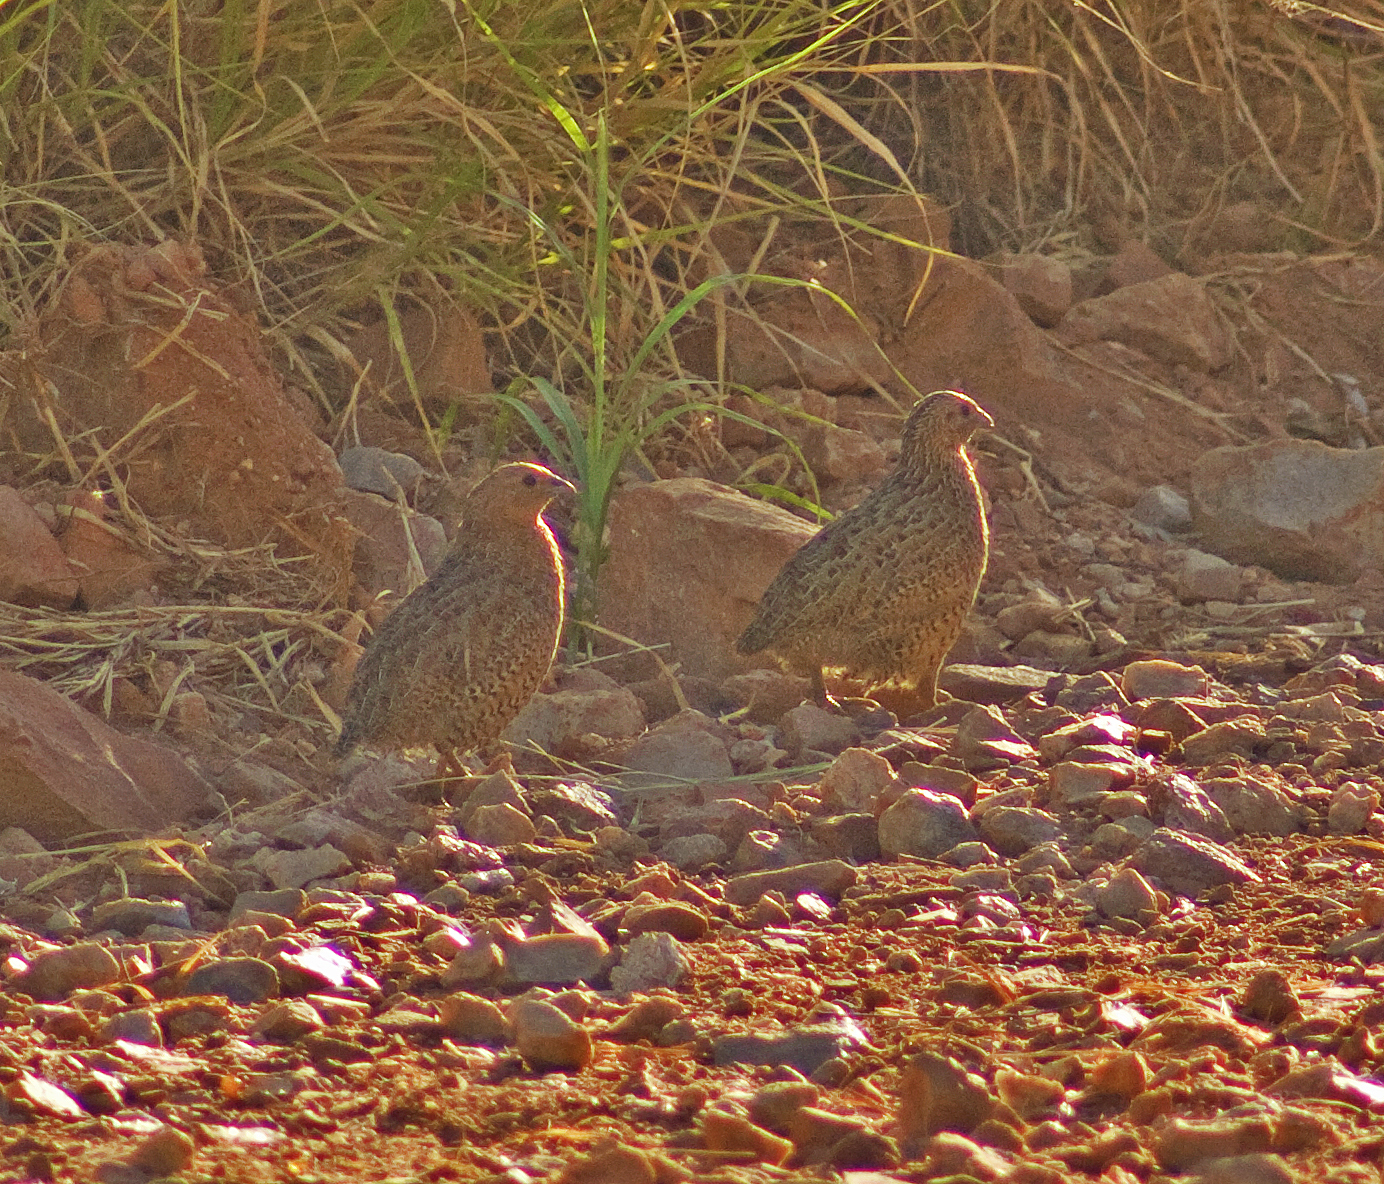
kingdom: Animalia
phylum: Chordata
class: Aves
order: Galliformes
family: Phasianidae
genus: Synoicus
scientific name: Synoicus ypsilophorus
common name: Brown quail
